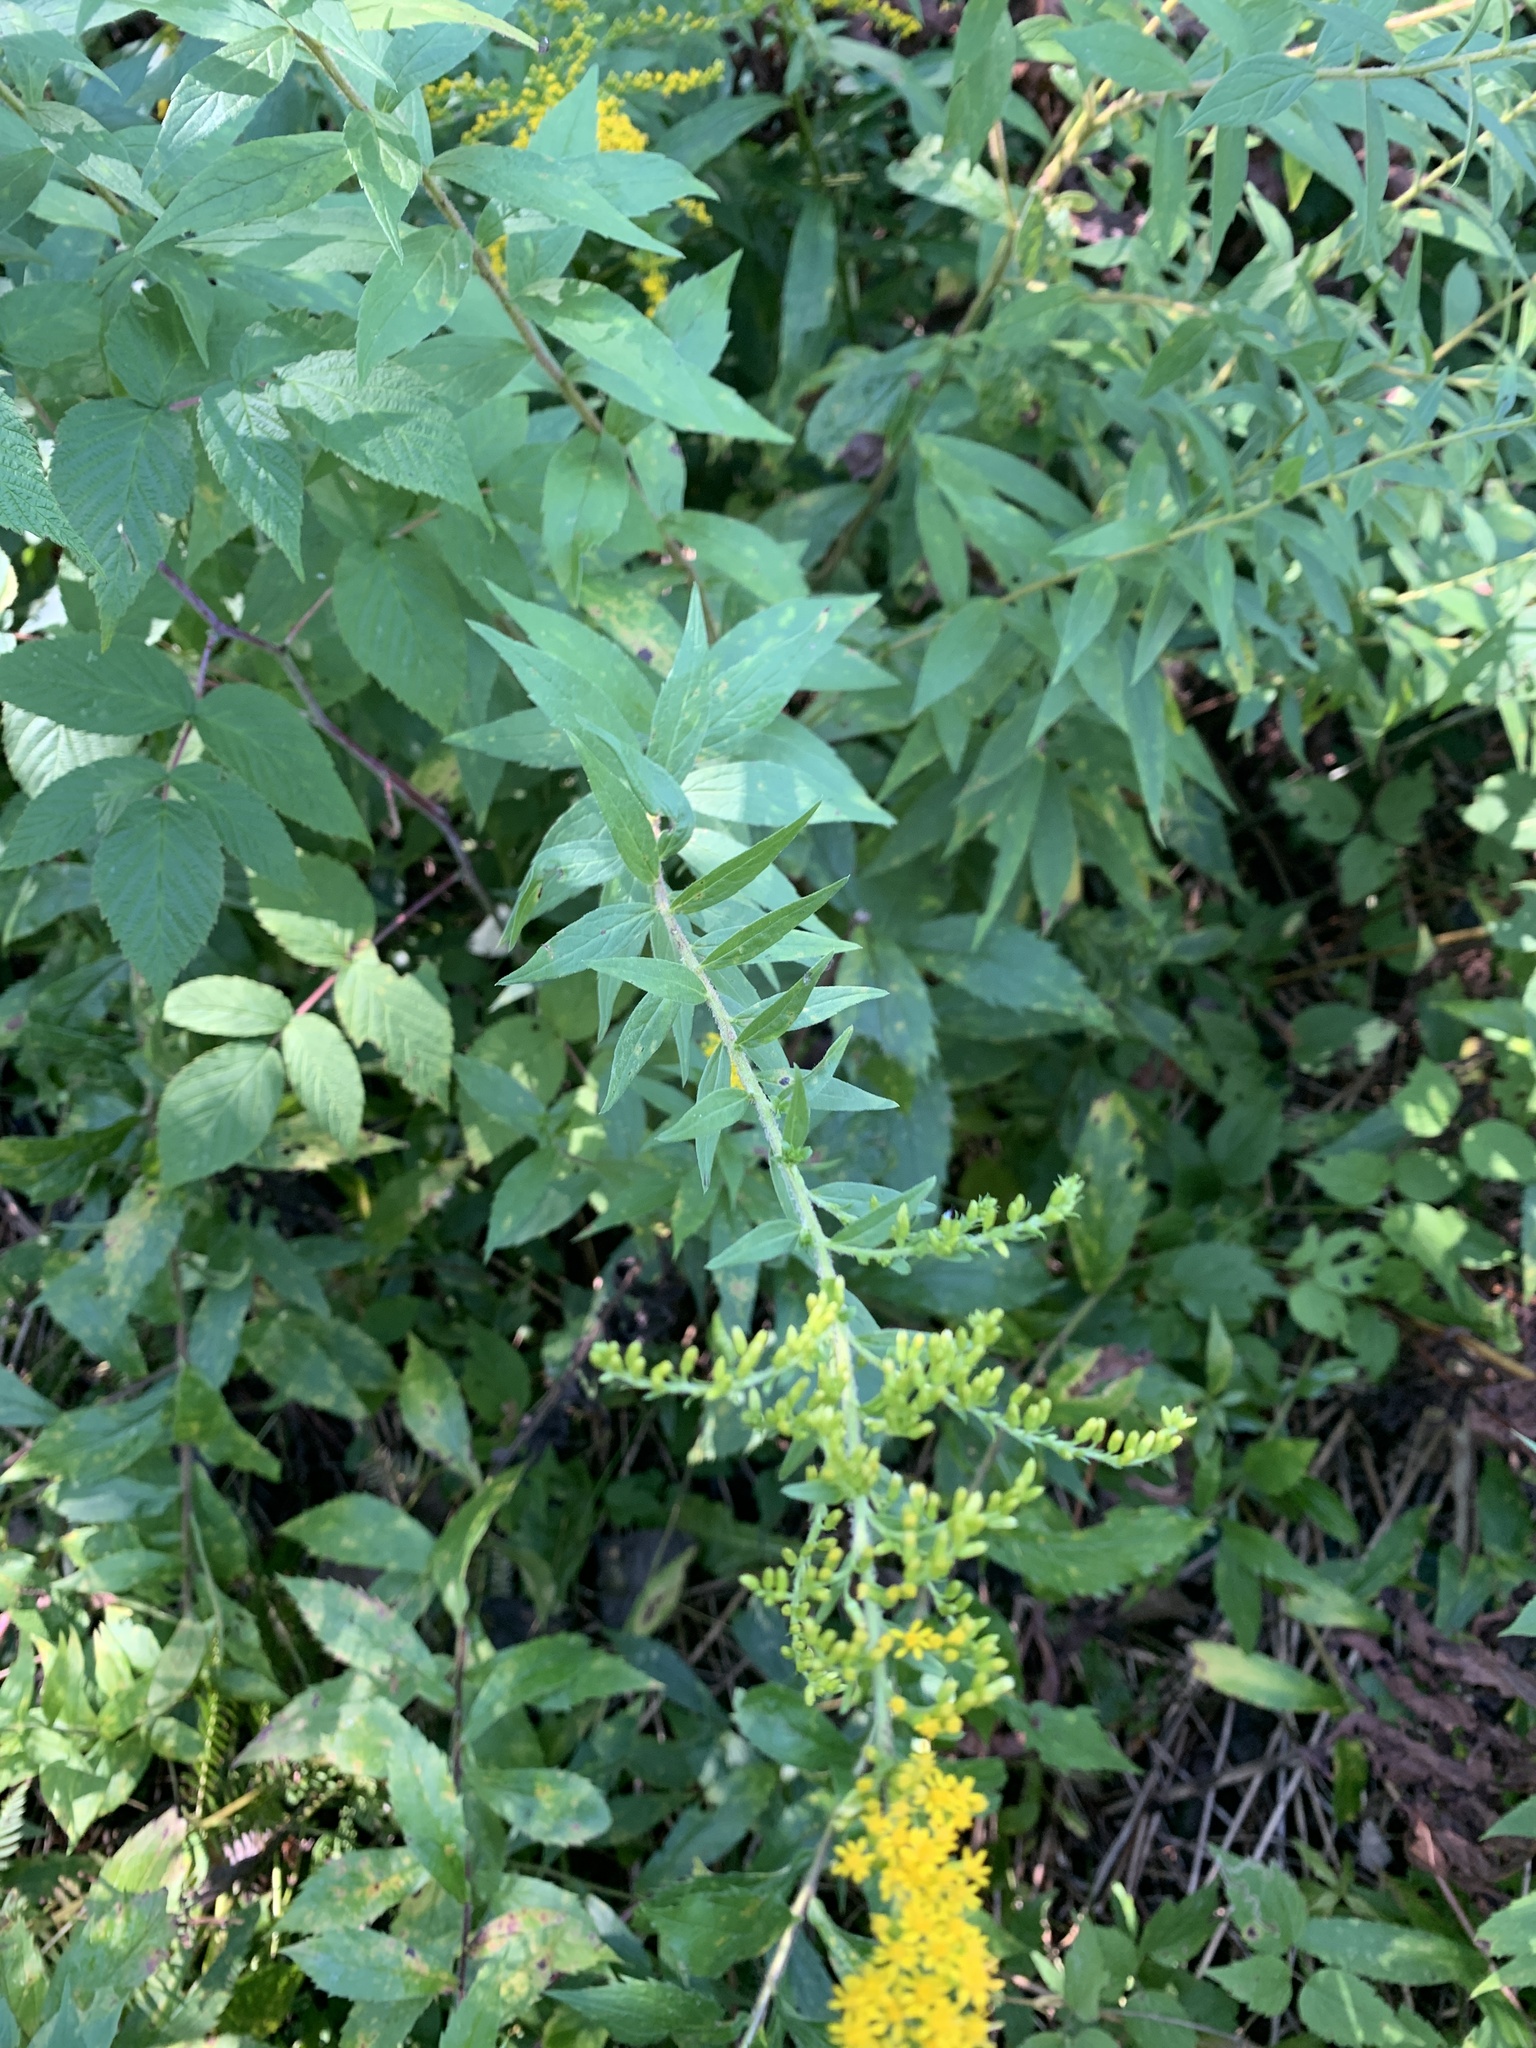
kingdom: Plantae
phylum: Tracheophyta
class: Magnoliopsida
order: Asterales
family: Asteraceae
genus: Solidago
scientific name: Solidago rugosa
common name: Rough-stemmed goldenrod
